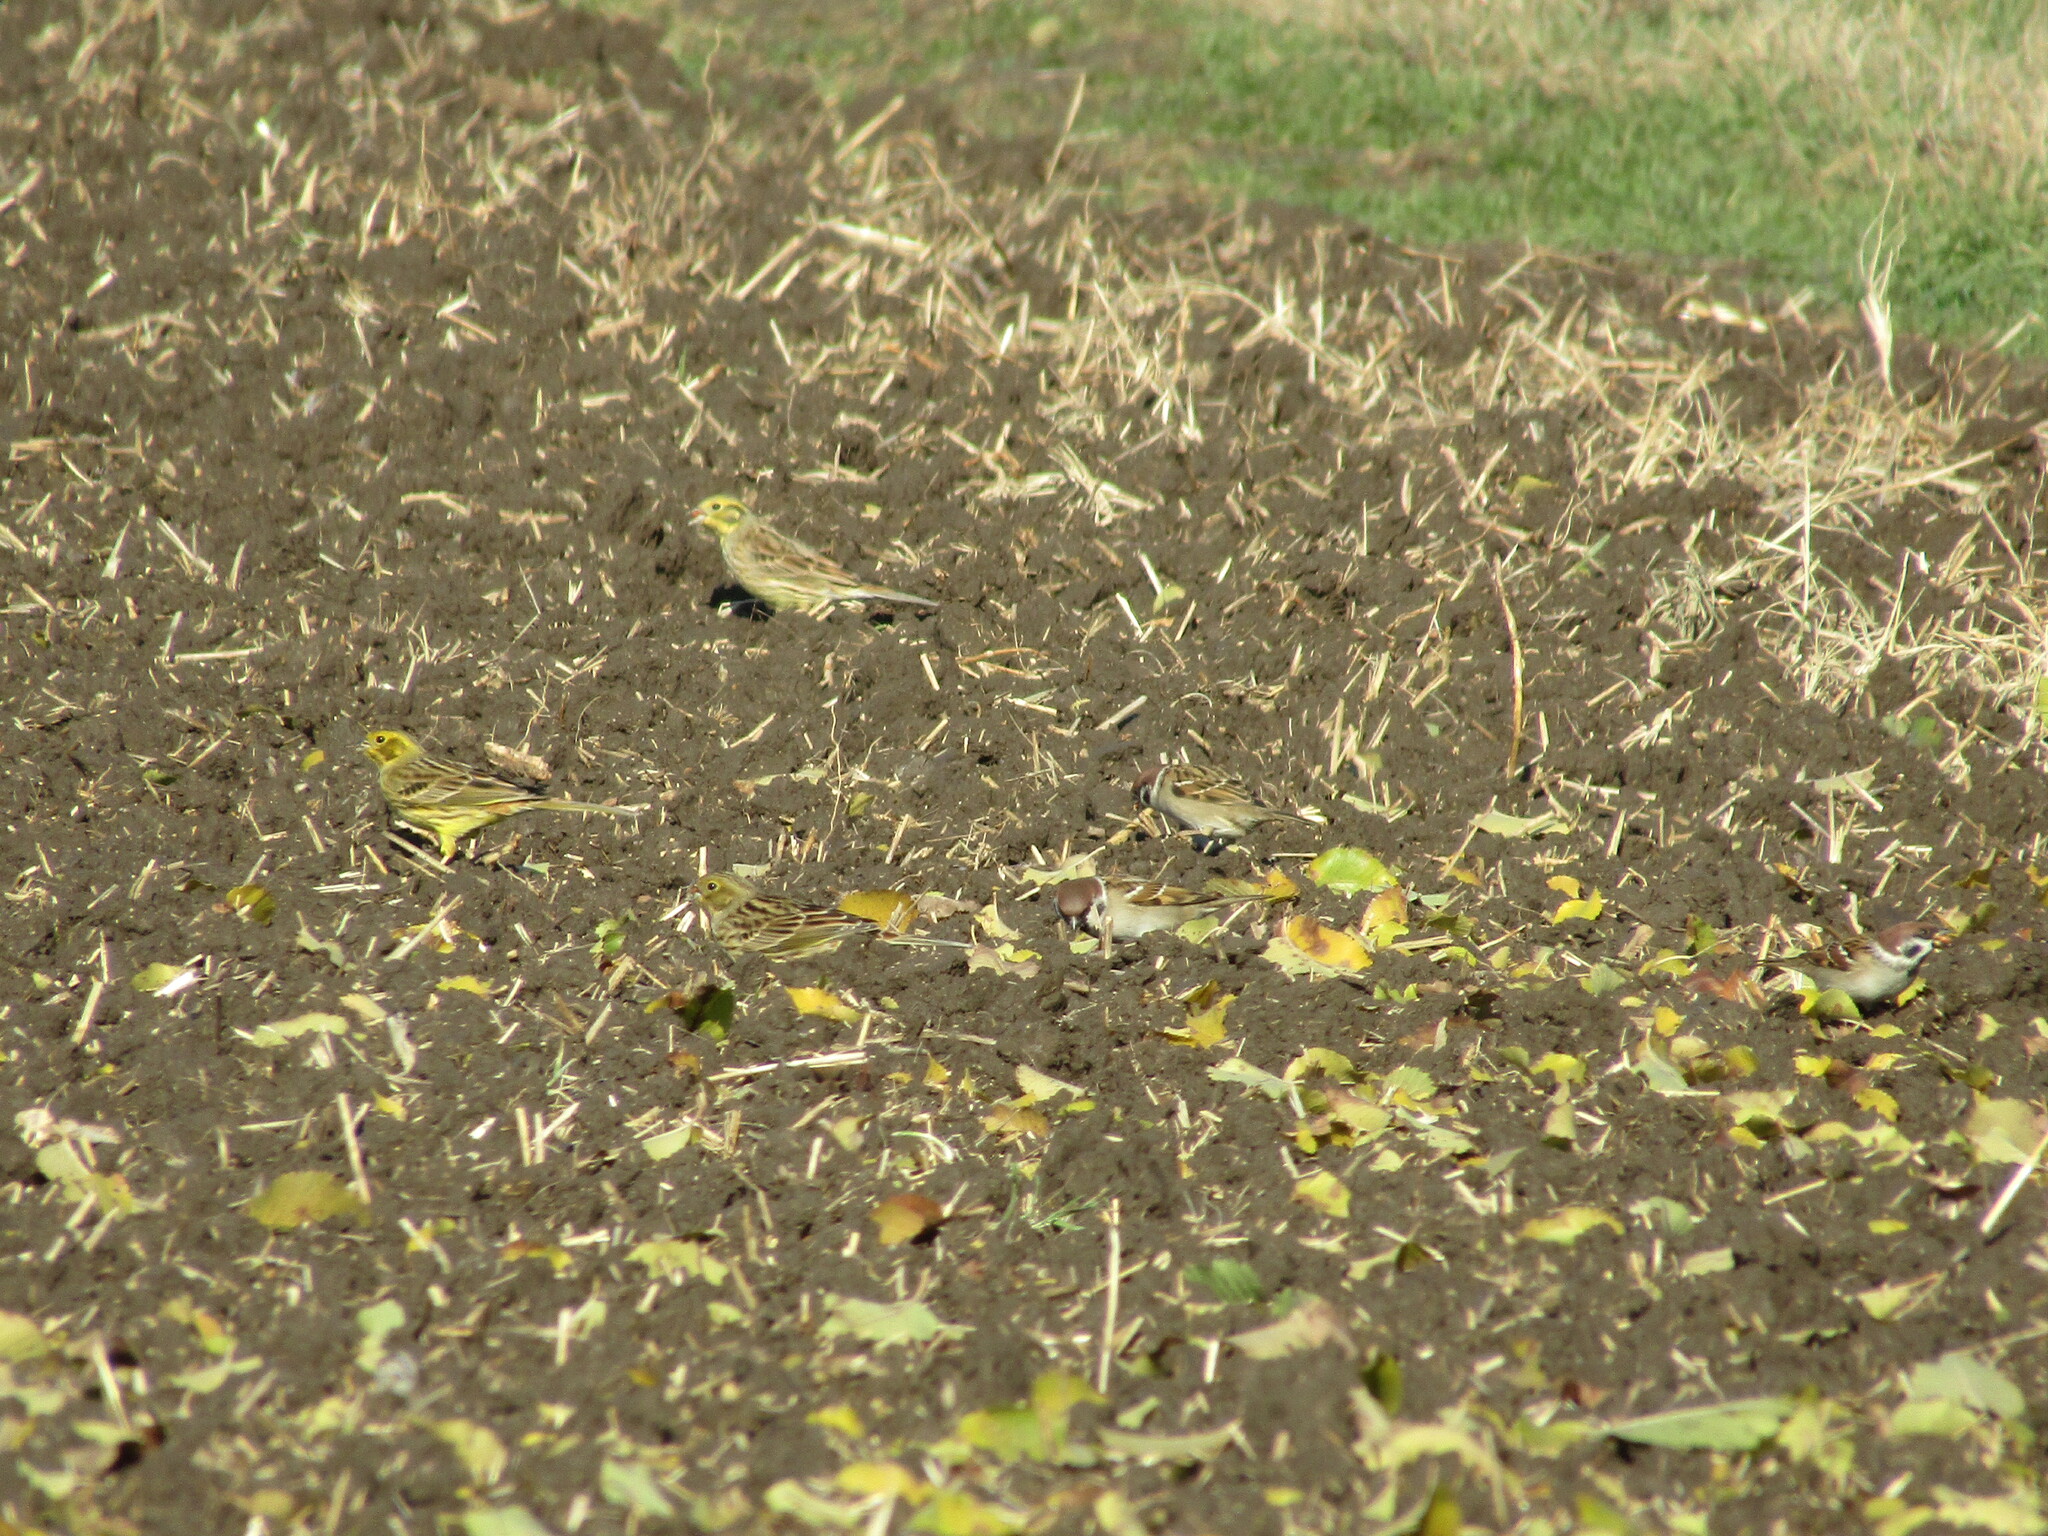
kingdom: Animalia
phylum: Chordata
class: Aves
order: Passeriformes
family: Passeridae
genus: Passer
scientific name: Passer montanus
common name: Eurasian tree sparrow
